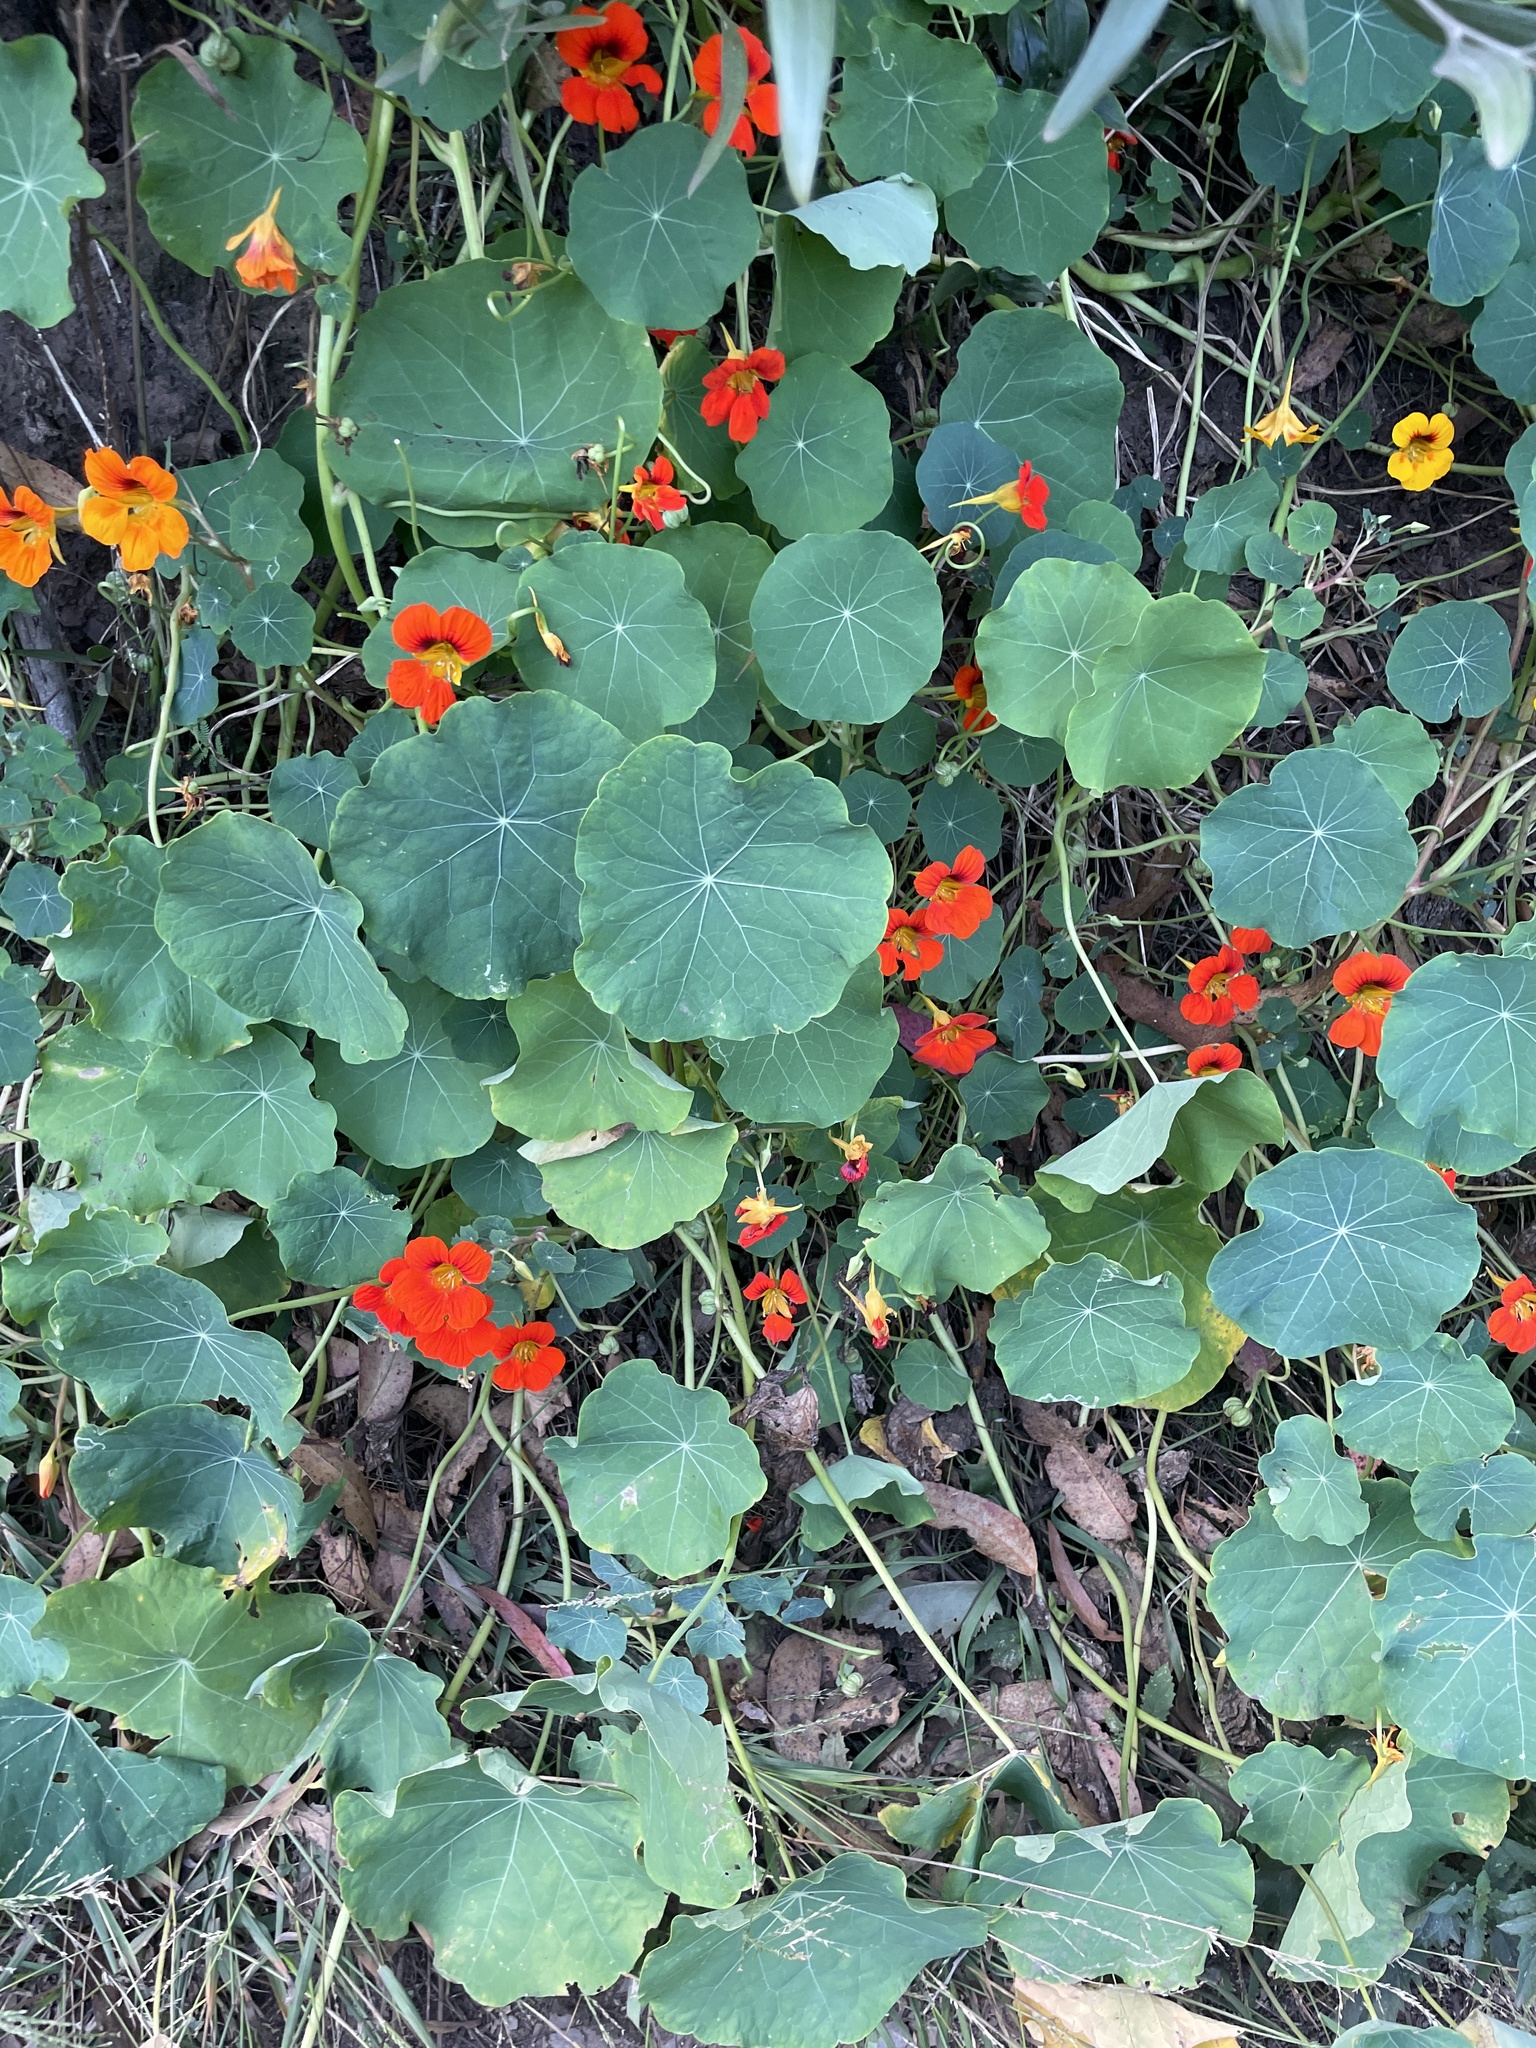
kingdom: Plantae
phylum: Tracheophyta
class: Magnoliopsida
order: Brassicales
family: Tropaeolaceae
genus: Tropaeolum
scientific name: Tropaeolum majus
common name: Nasturtium
